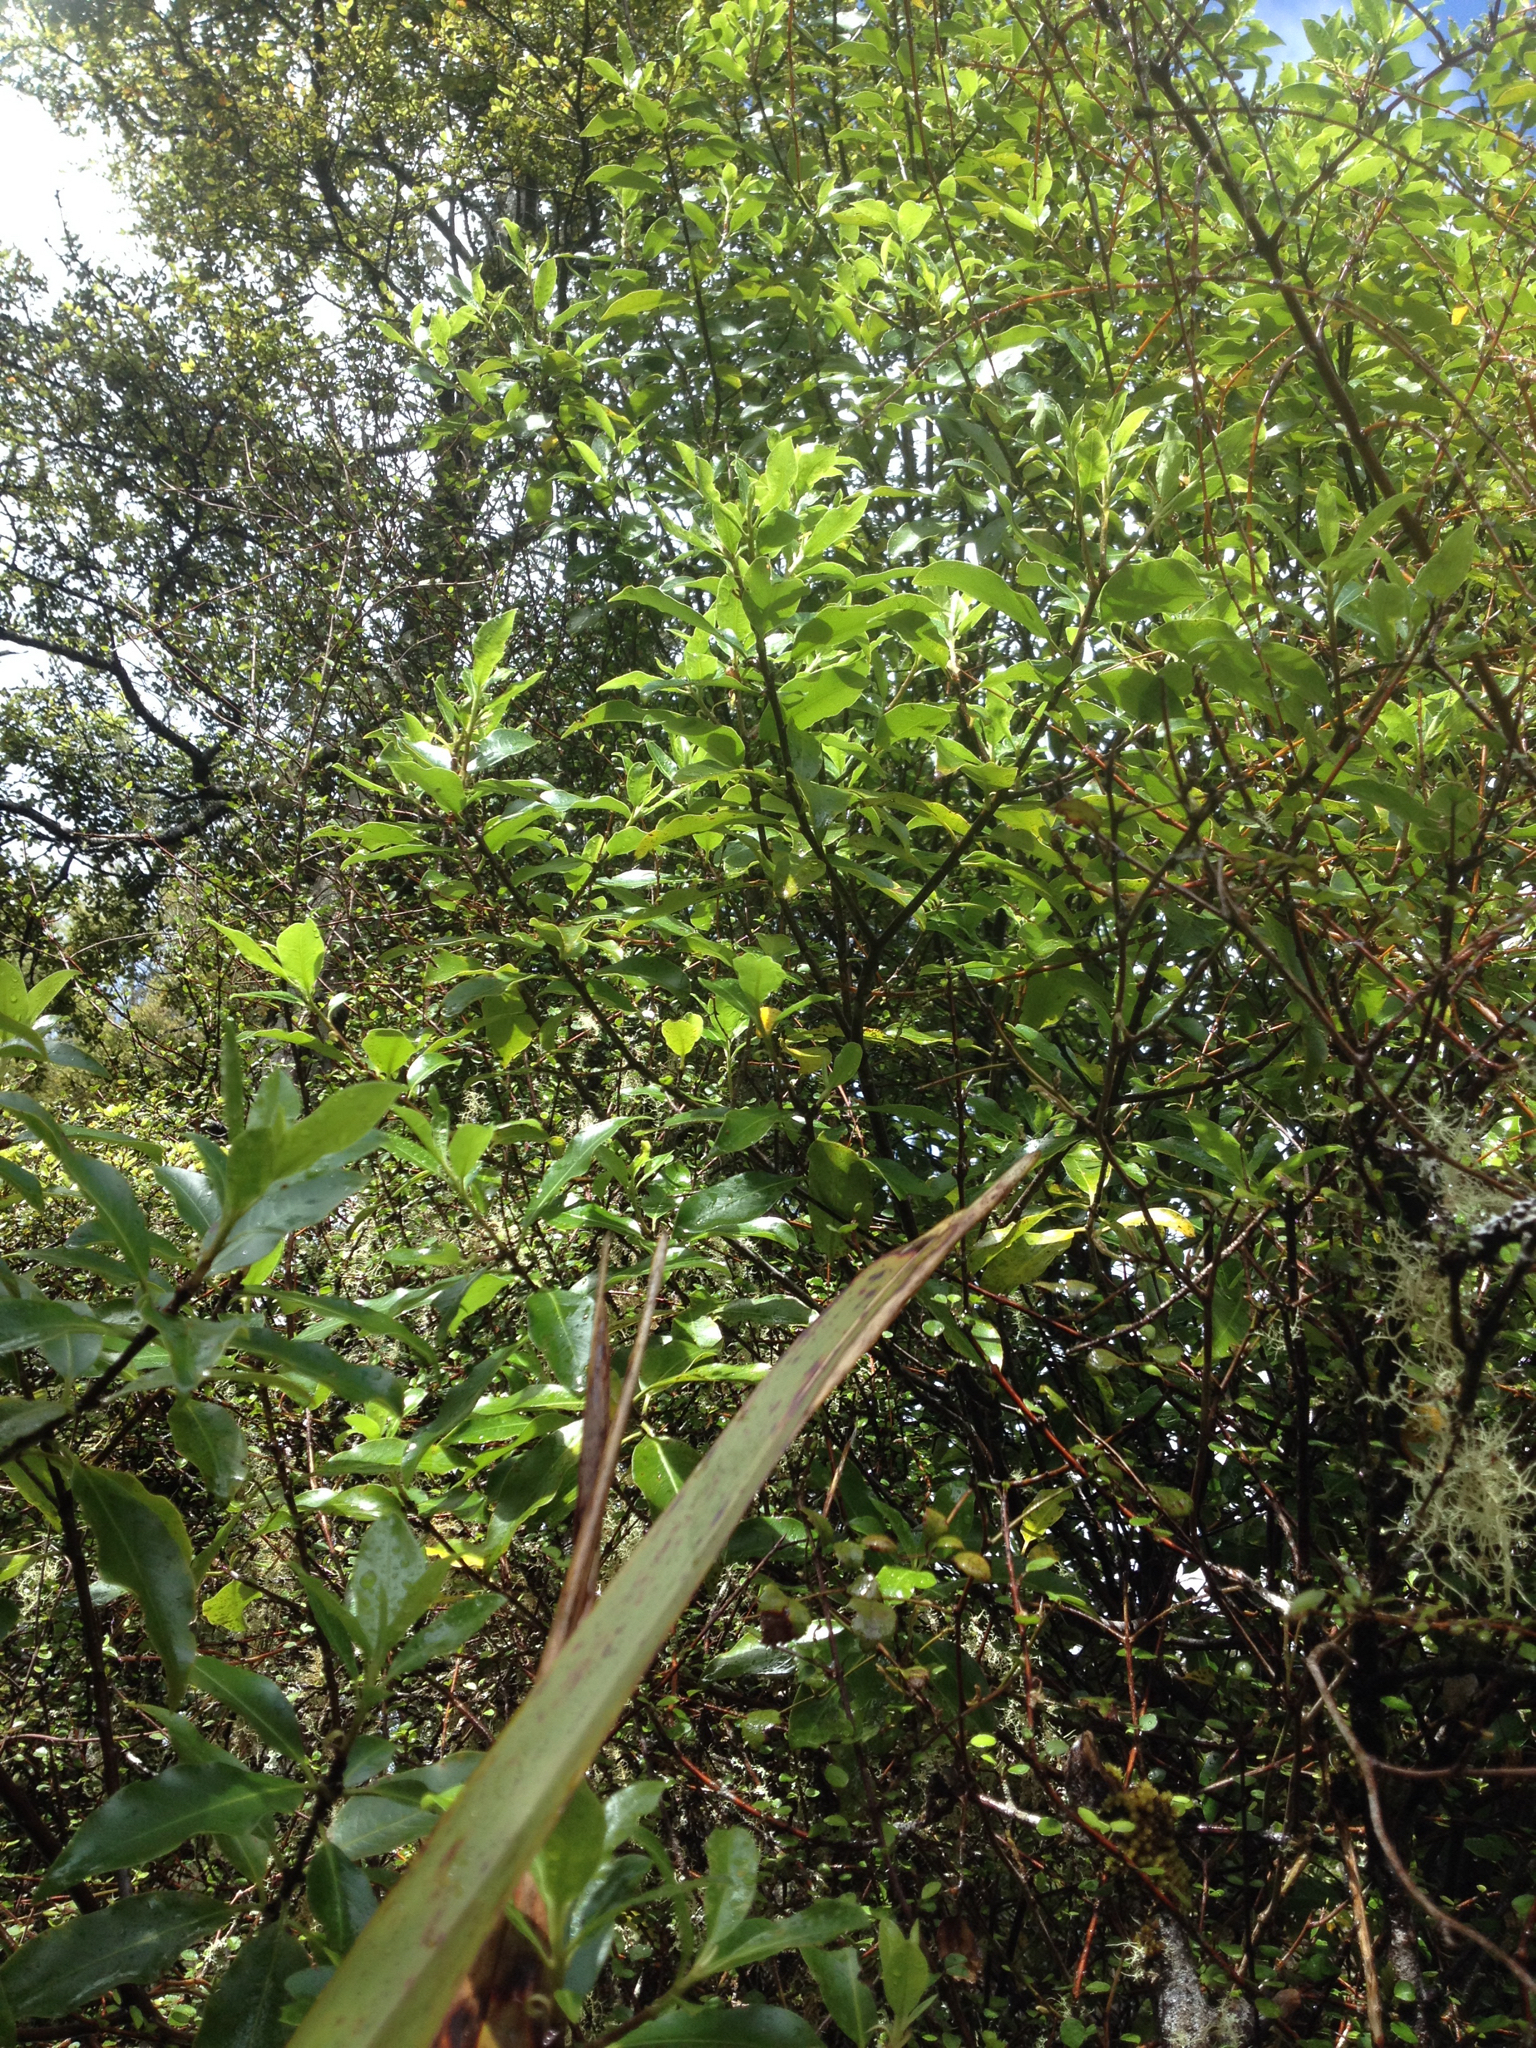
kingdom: Plantae
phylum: Tracheophyta
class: Magnoliopsida
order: Apiales
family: Pittosporaceae
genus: Pittosporum
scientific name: Pittosporum colensoi
